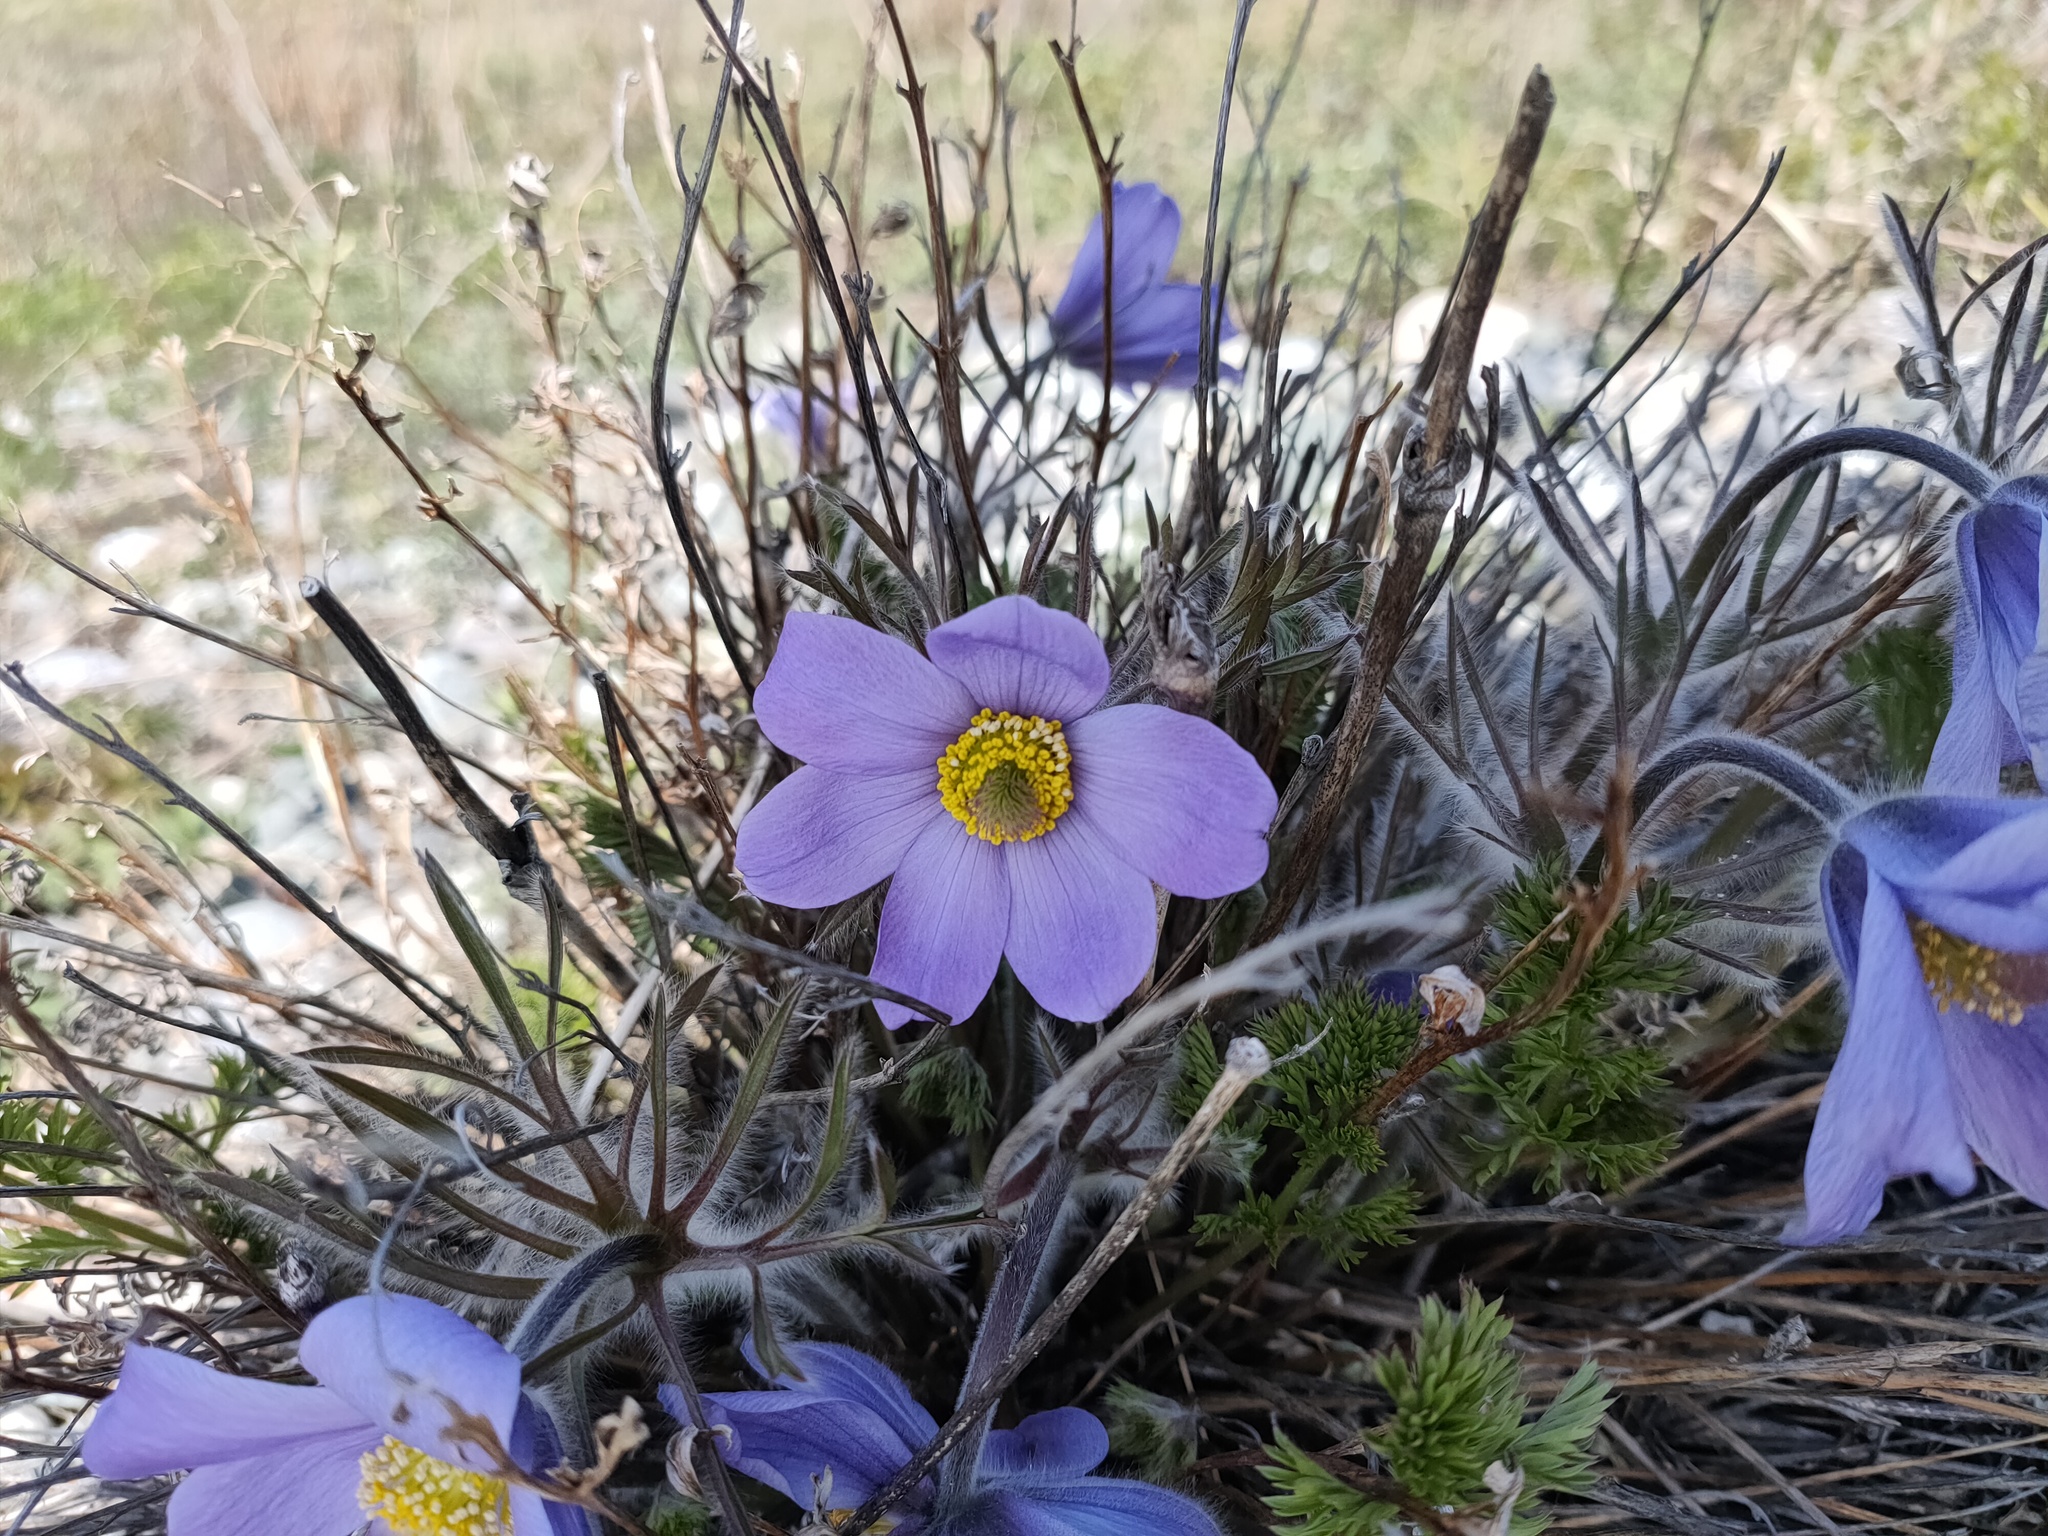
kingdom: Plantae
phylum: Tracheophyta
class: Magnoliopsida
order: Ranunculales
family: Ranunculaceae
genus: Pulsatilla
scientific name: Pulsatilla turczaninovii
